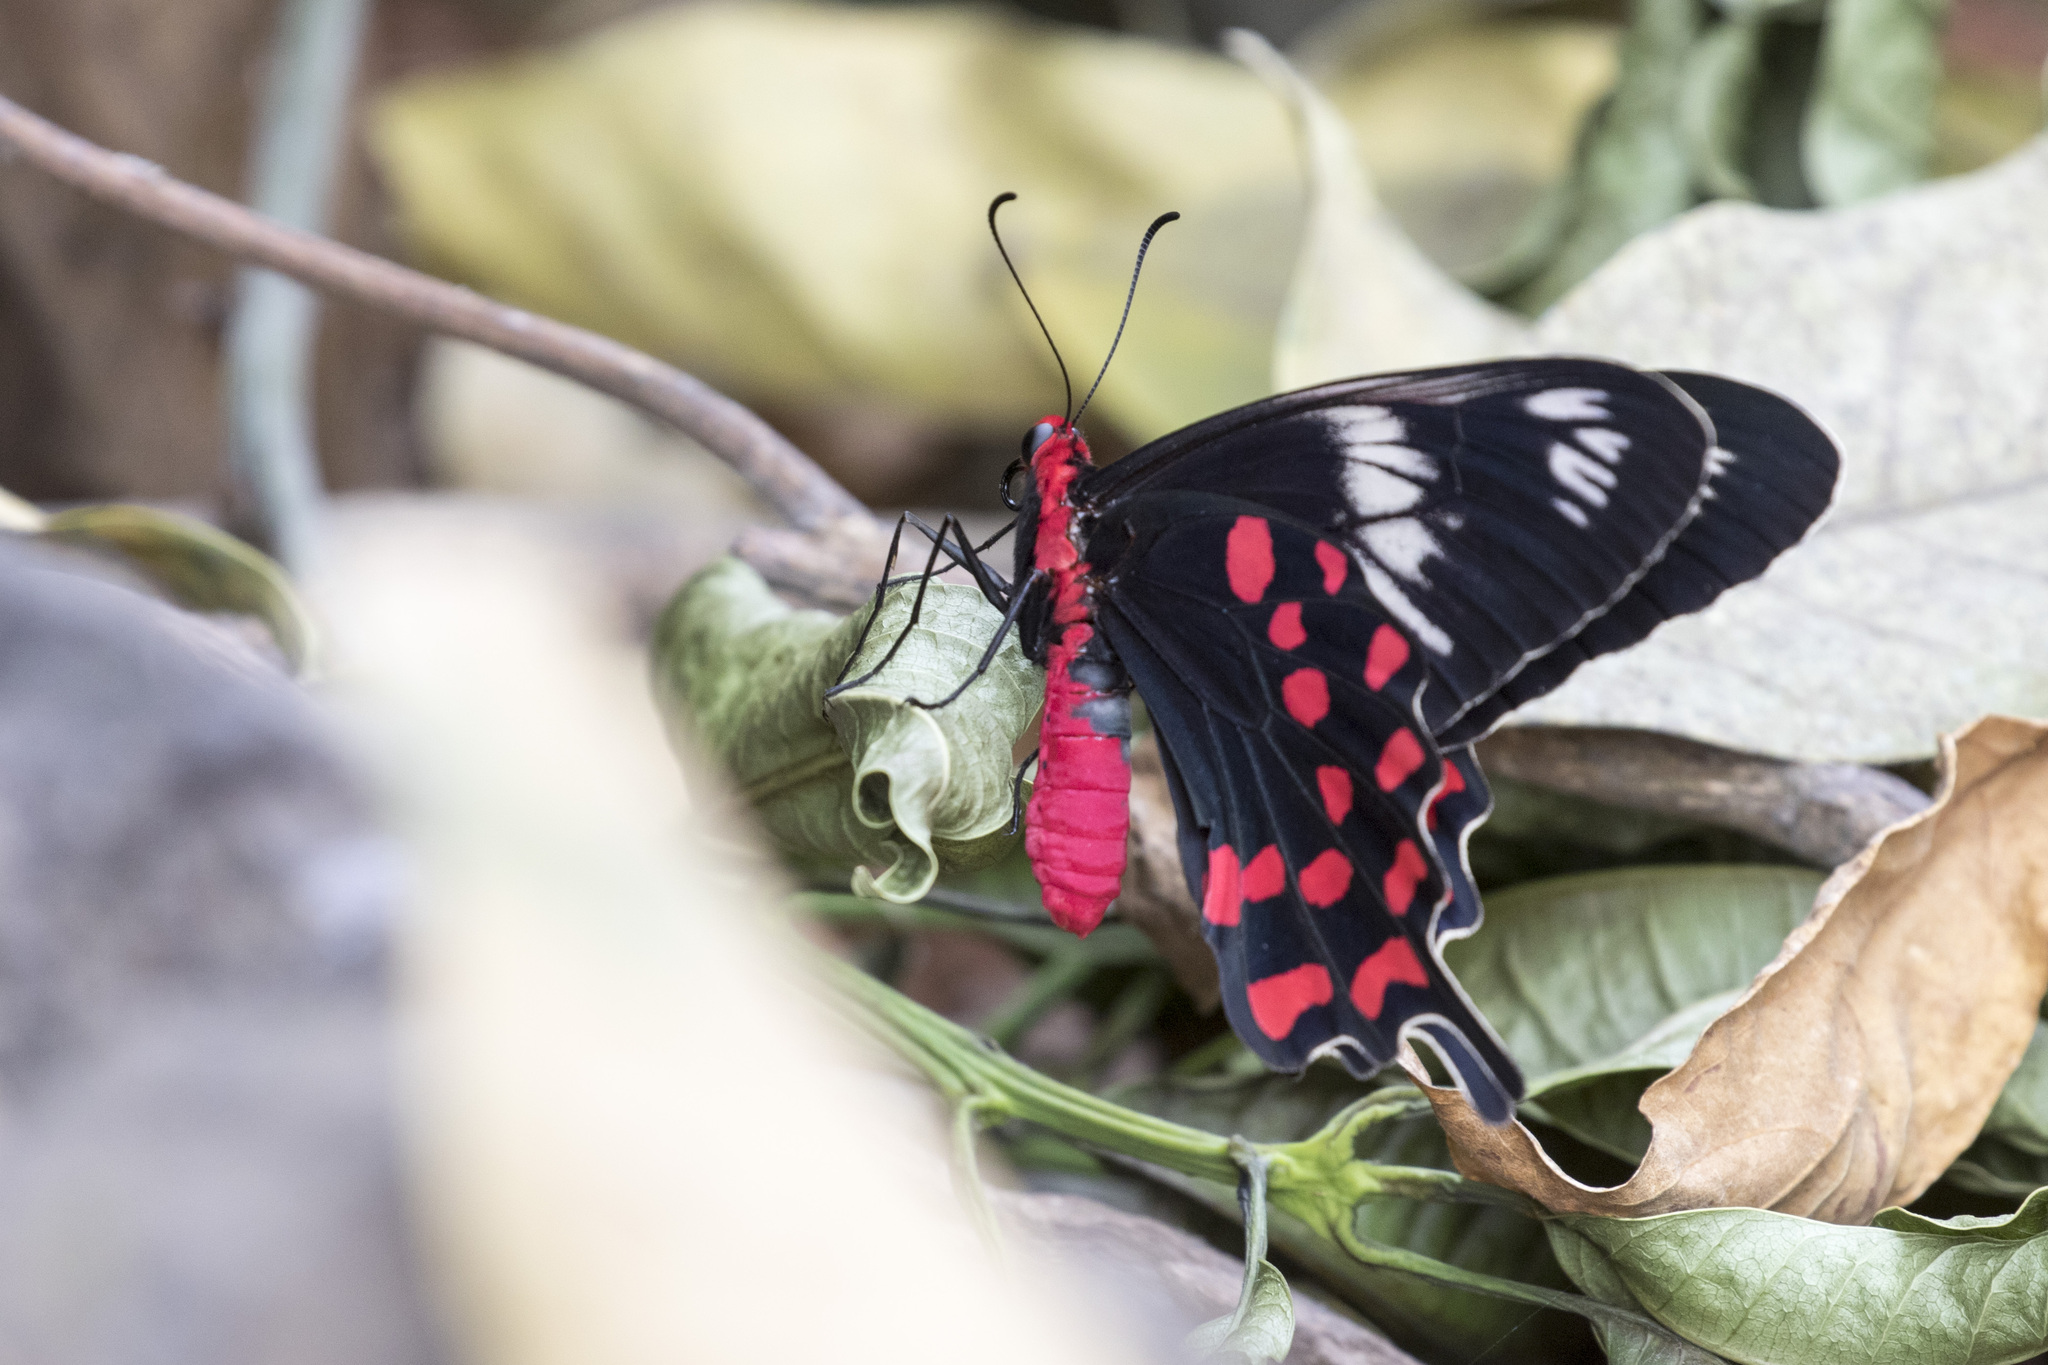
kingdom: Animalia
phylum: Arthropoda
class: Insecta
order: Lepidoptera
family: Papilionidae
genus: Pachliopta
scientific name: Pachliopta hector
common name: Crimson rose
